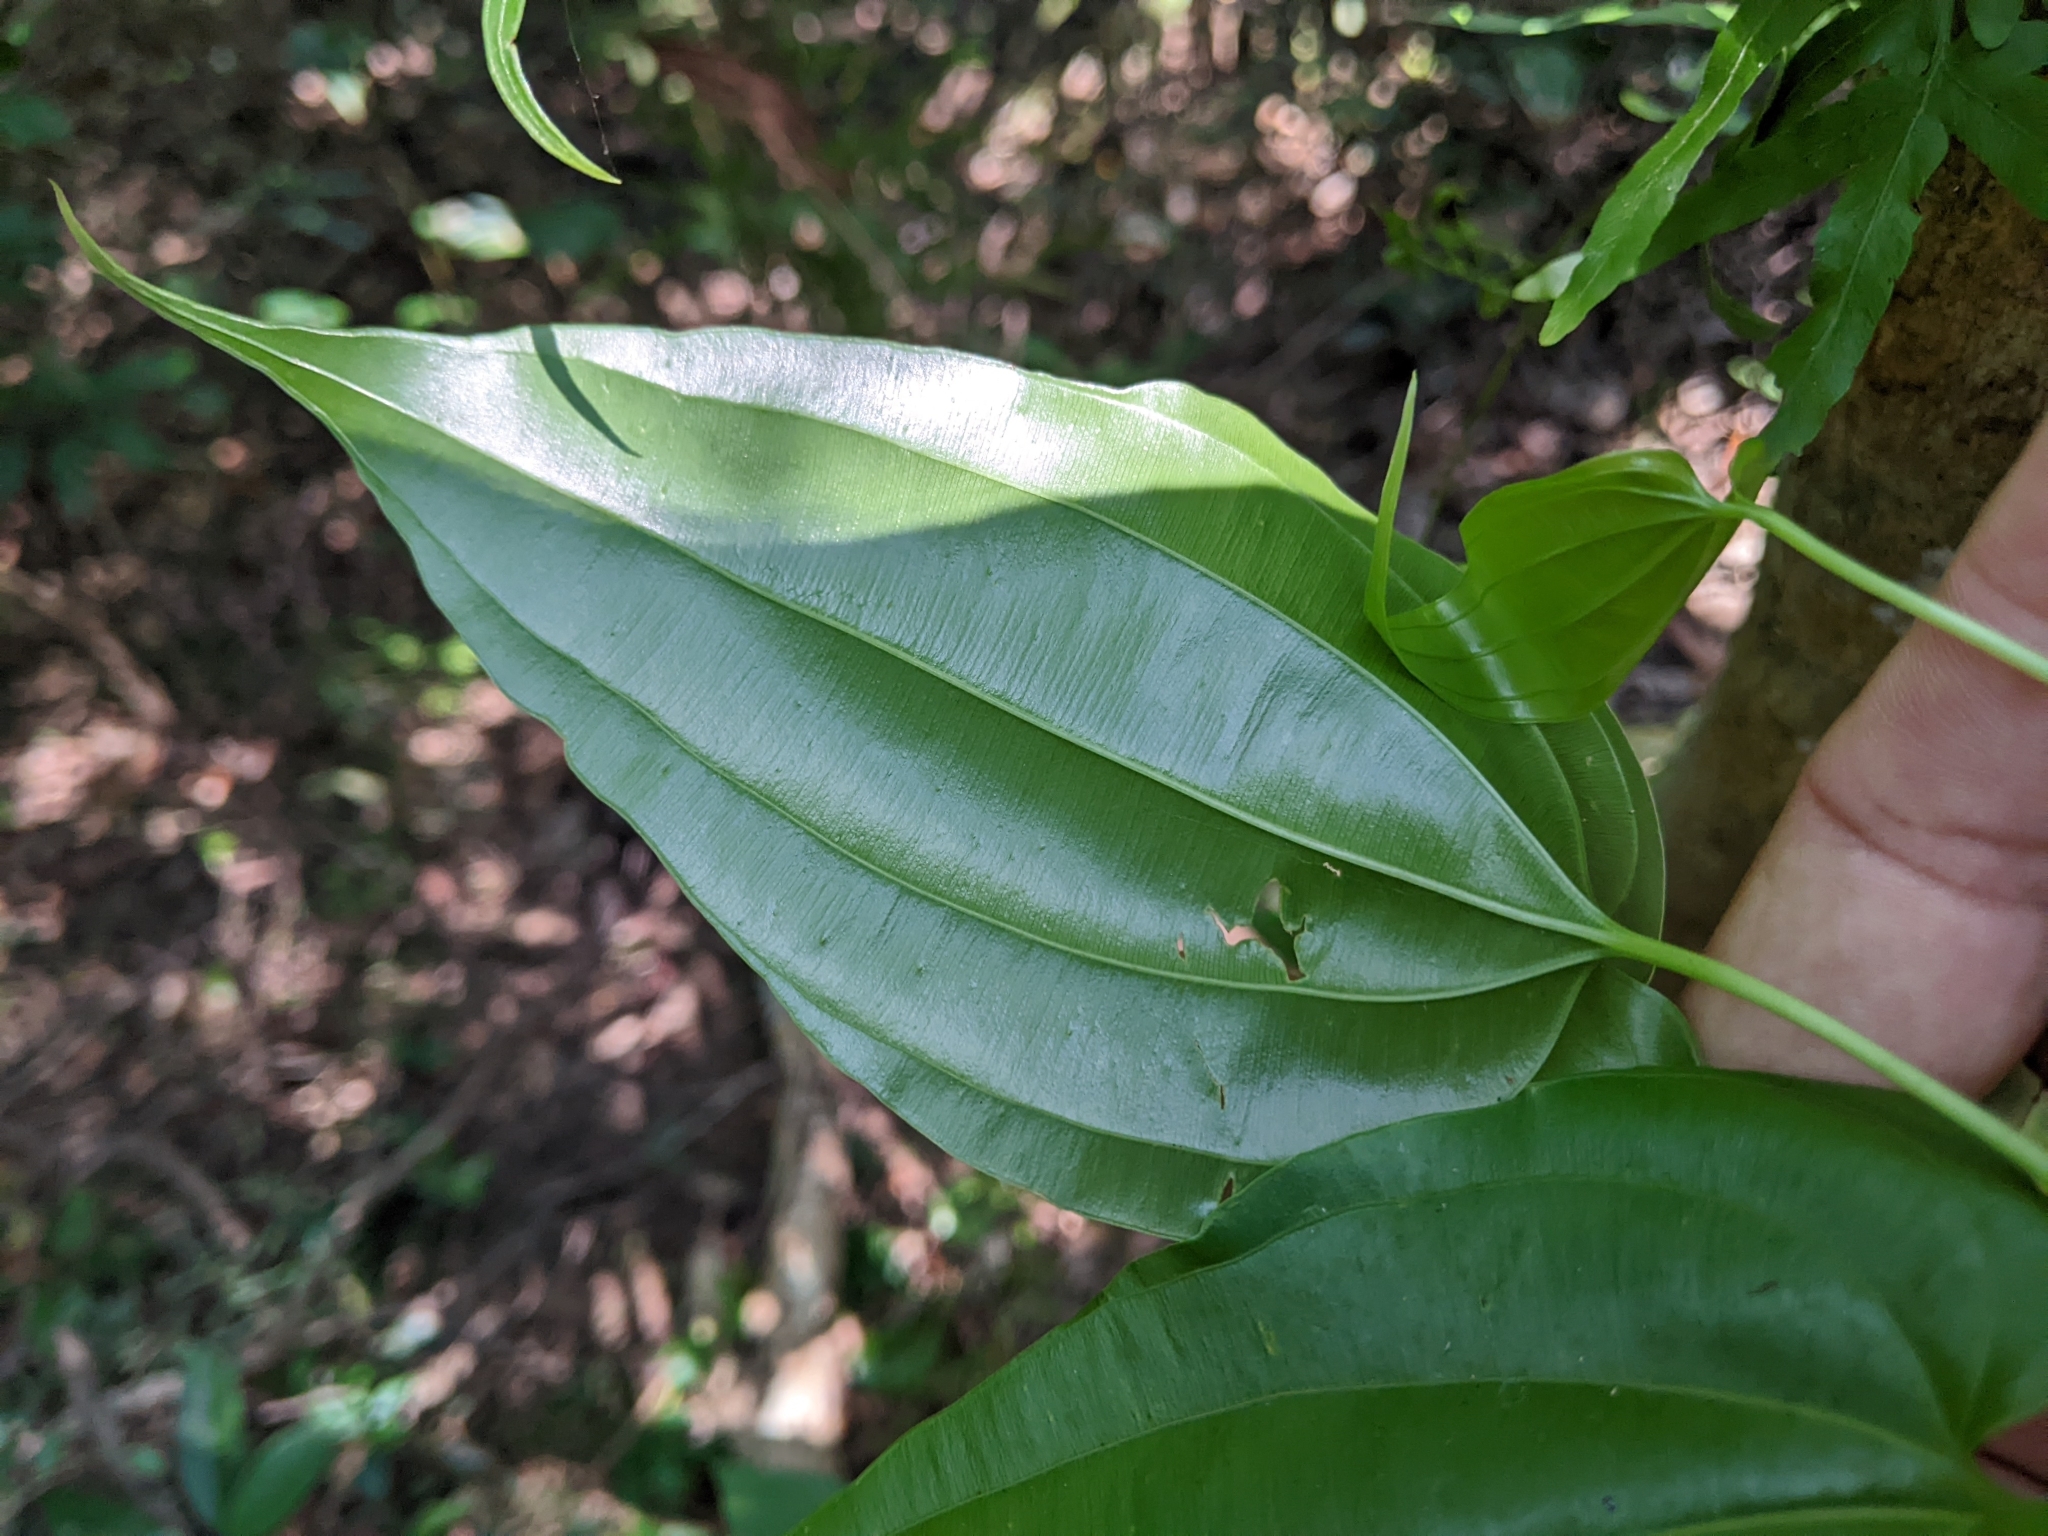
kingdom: Plantae
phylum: Tracheophyta
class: Liliopsida
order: Pandanales
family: Stemonaceae
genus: Stemona
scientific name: Stemona tuberosa
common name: Stemona
